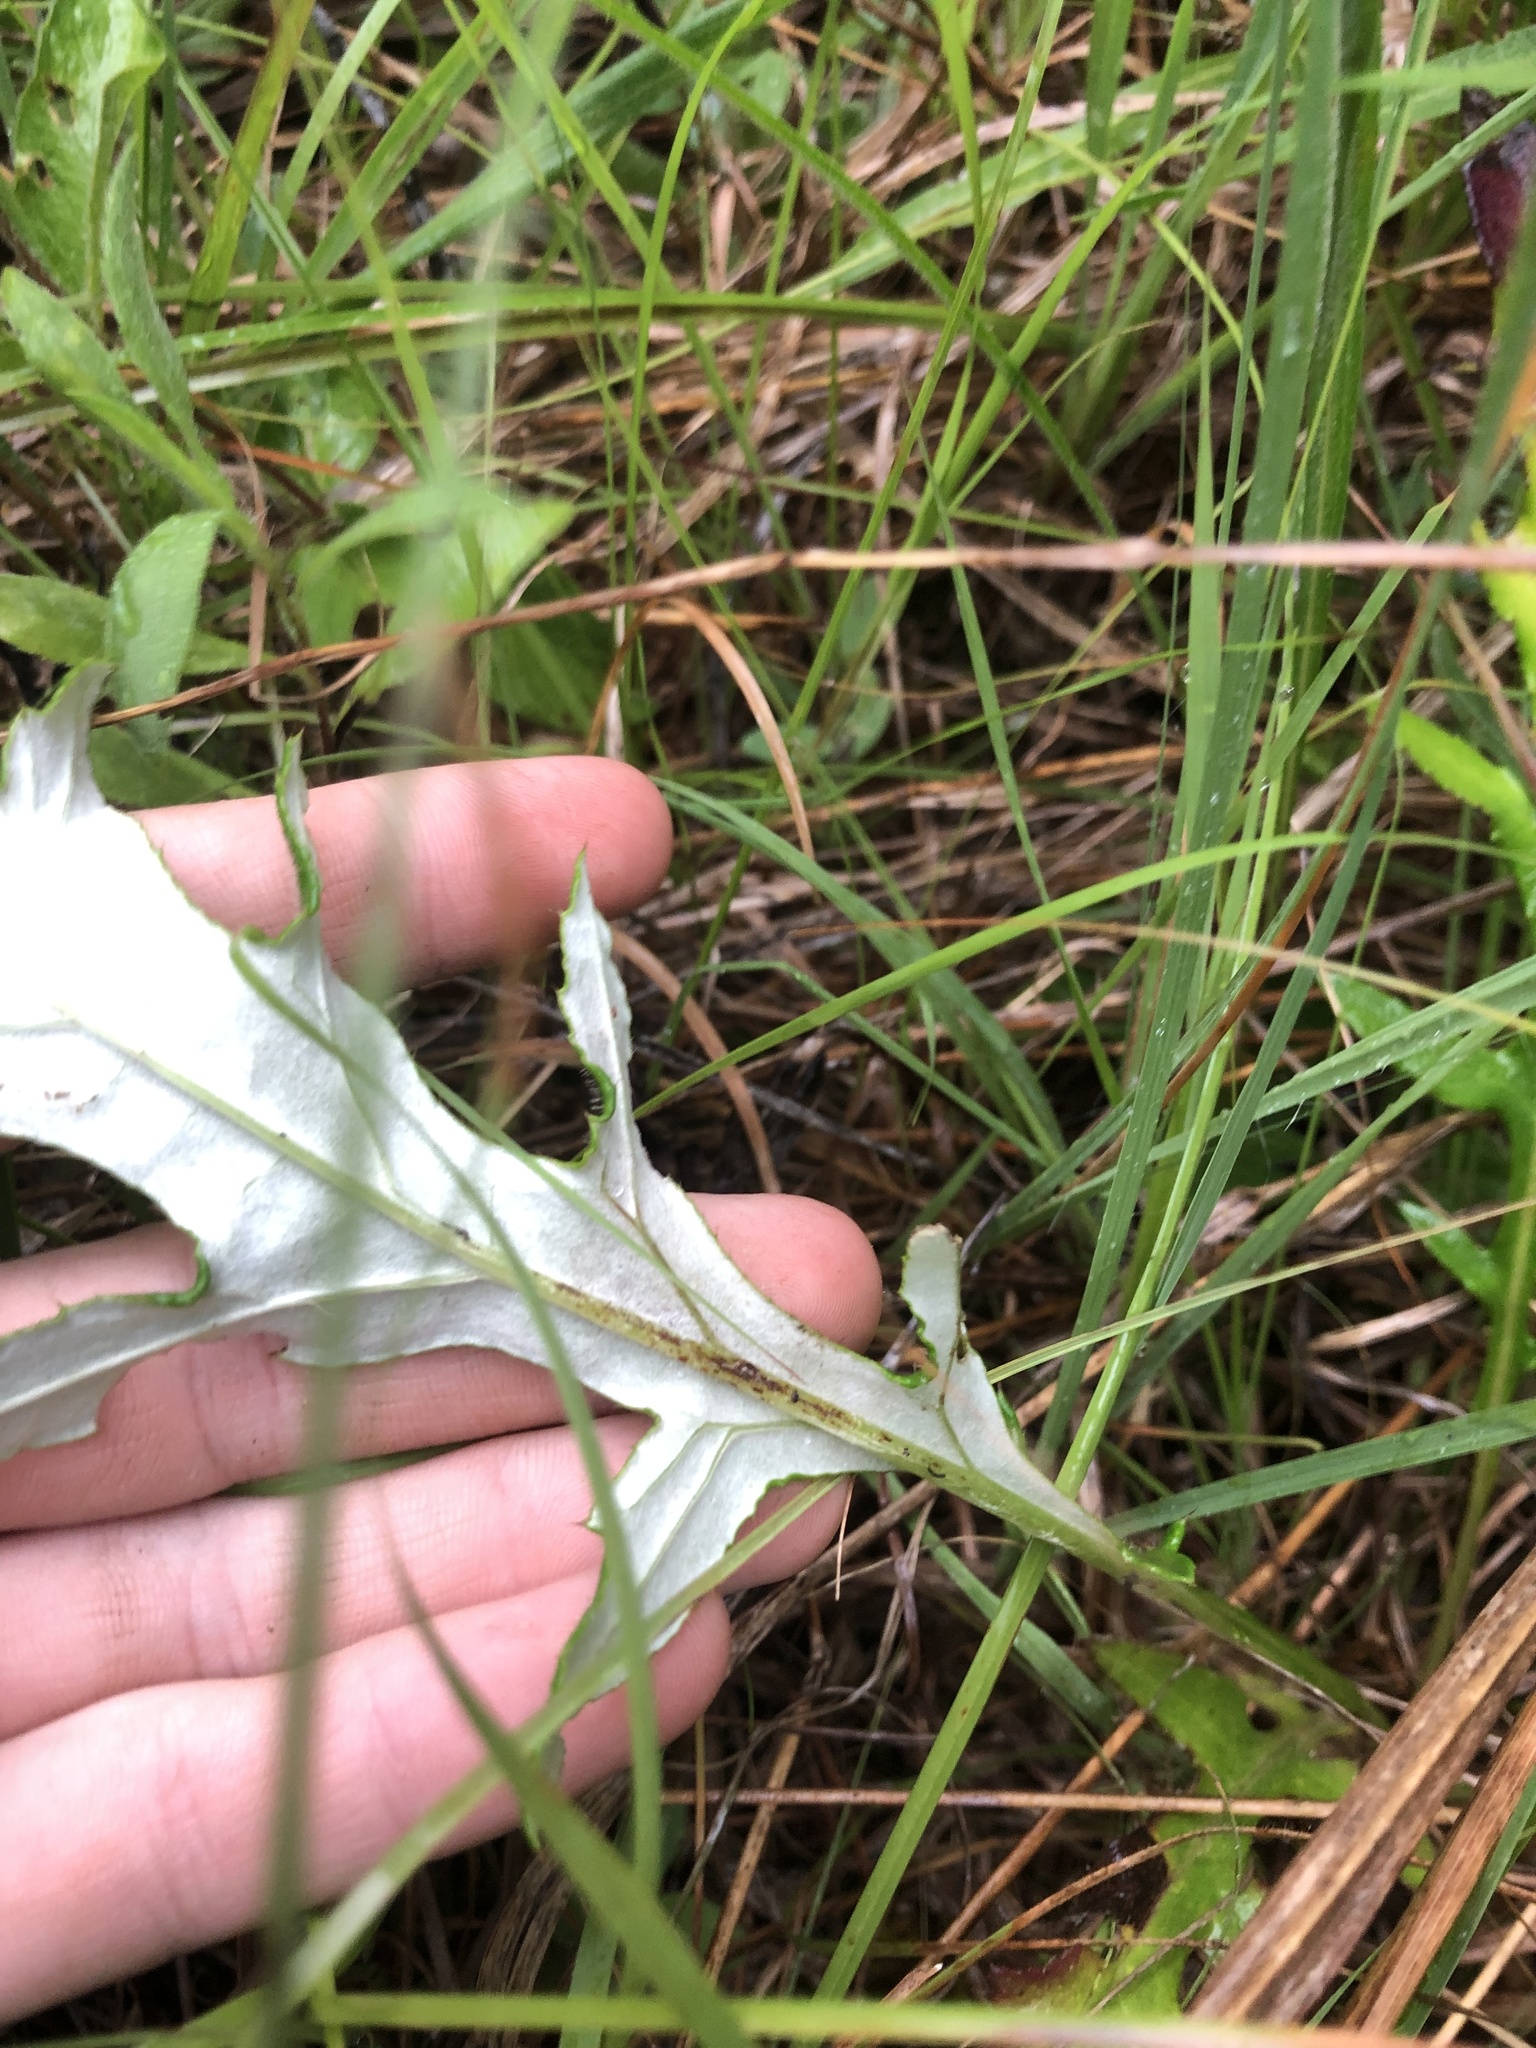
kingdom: Plantae
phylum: Tracheophyta
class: Magnoliopsida
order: Asterales
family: Asteraceae
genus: Cirsium
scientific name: Cirsium altissimum
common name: Roadside thistle
